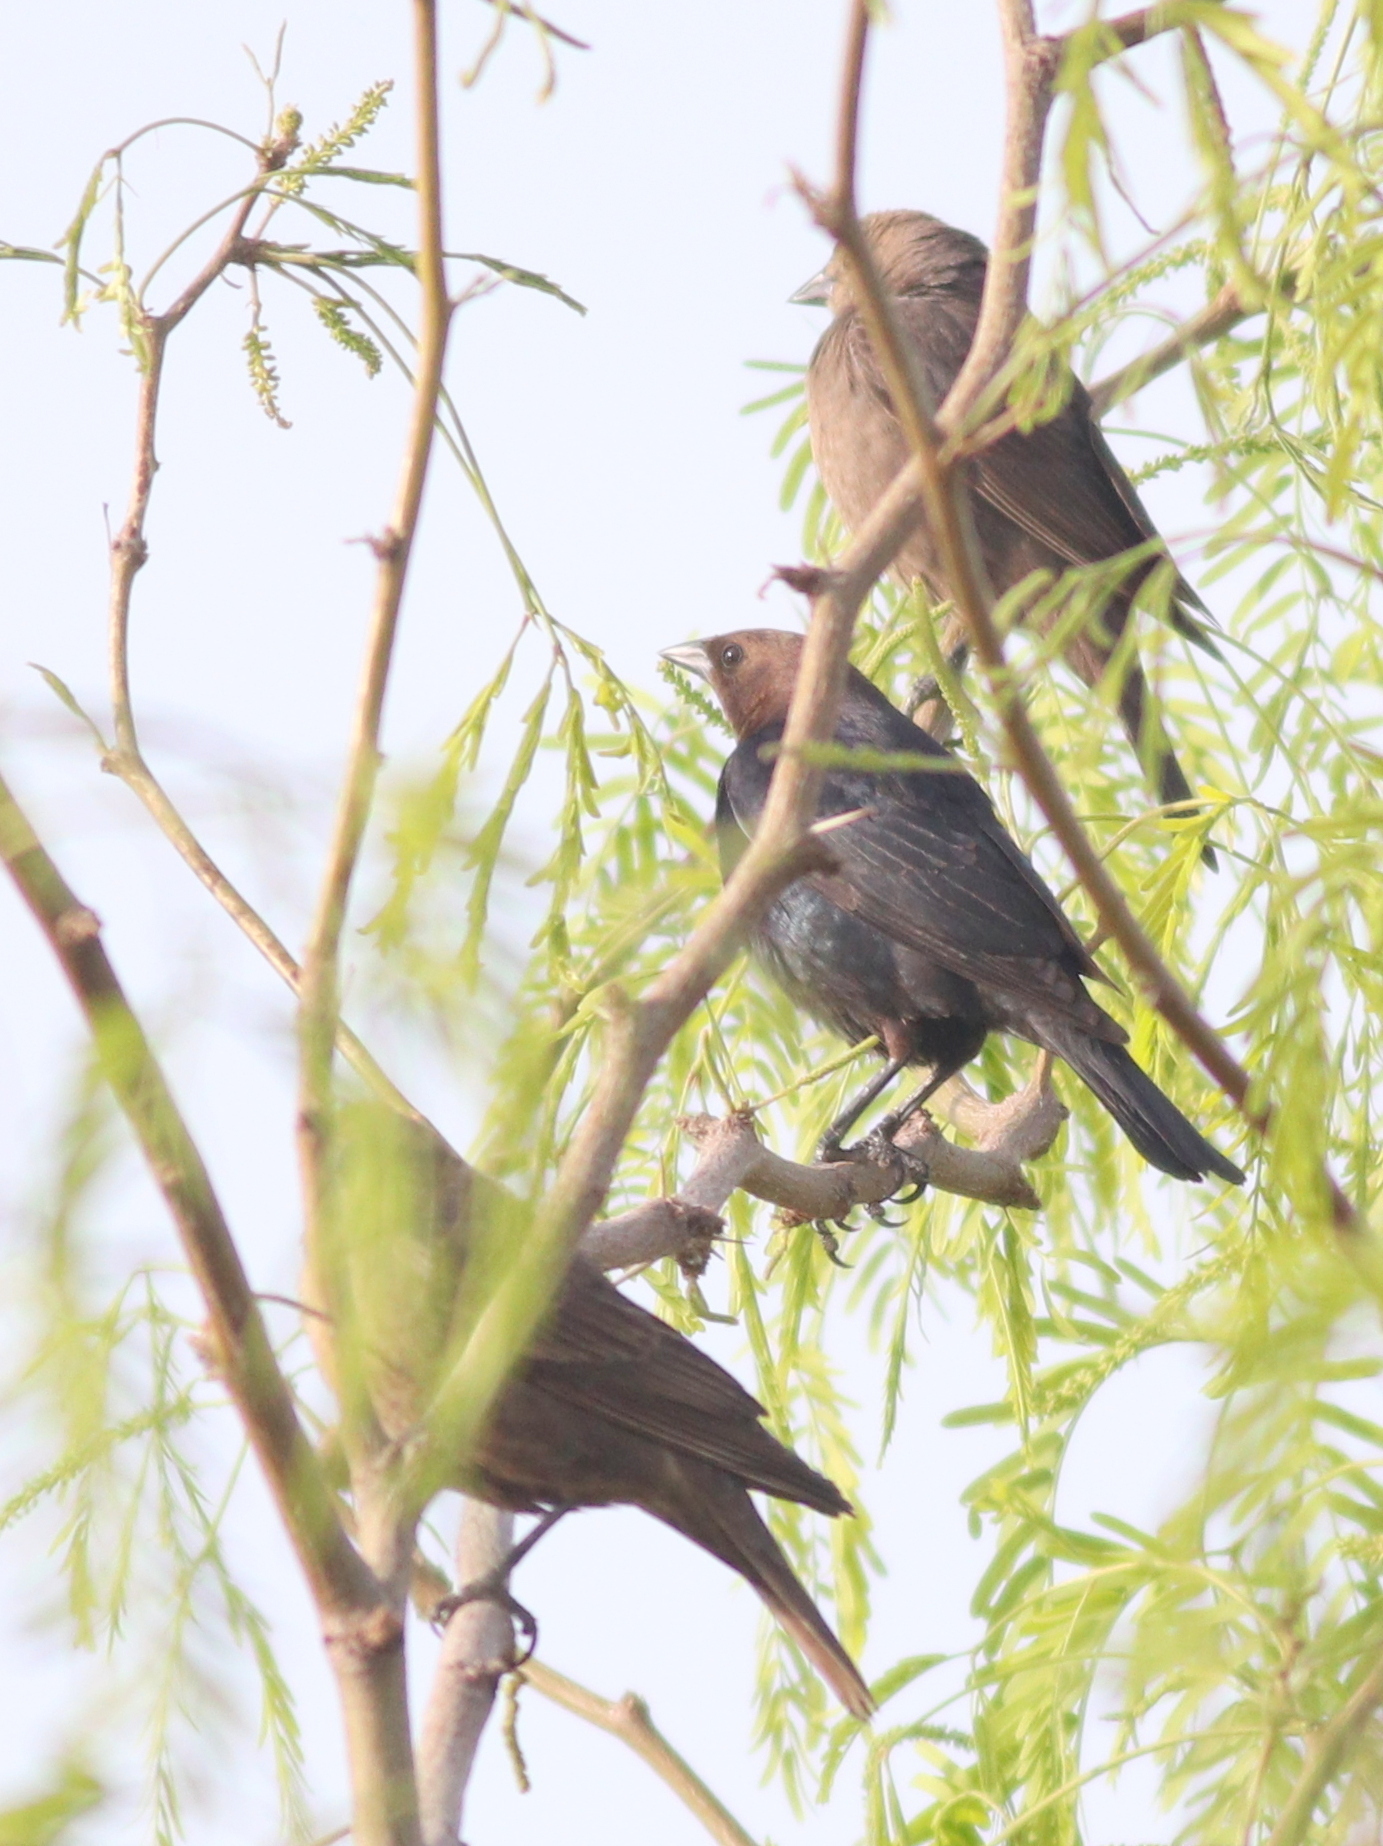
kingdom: Animalia
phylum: Chordata
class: Aves
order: Passeriformes
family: Icteridae
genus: Molothrus
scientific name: Molothrus ater
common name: Brown-headed cowbird
